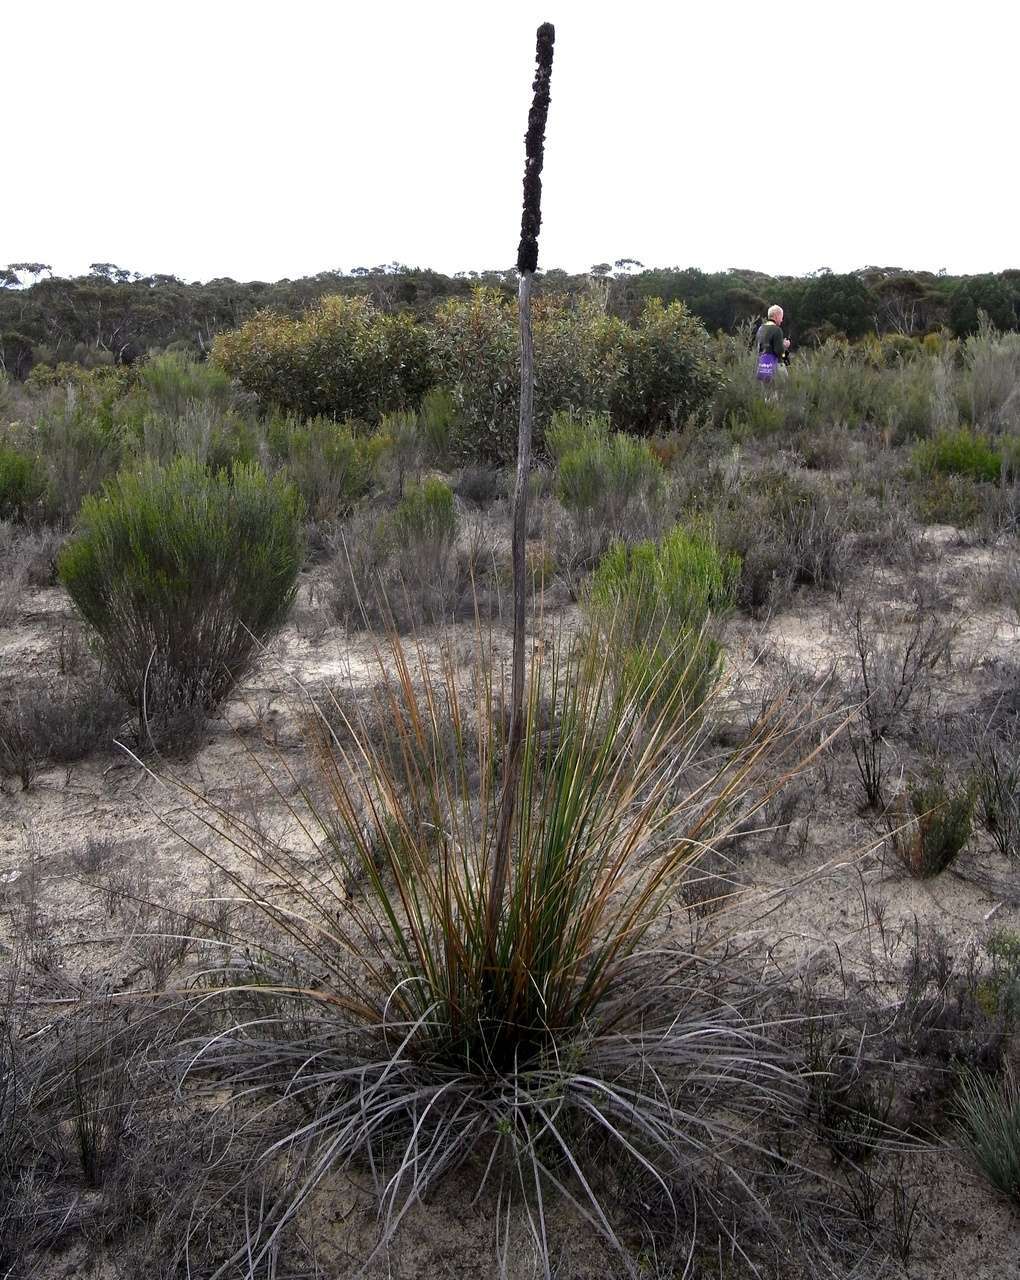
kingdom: Plantae
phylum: Tracheophyta
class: Liliopsida
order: Asparagales
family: Asphodelaceae
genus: Xanthorrhoea
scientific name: Xanthorrhoea caespitosa
